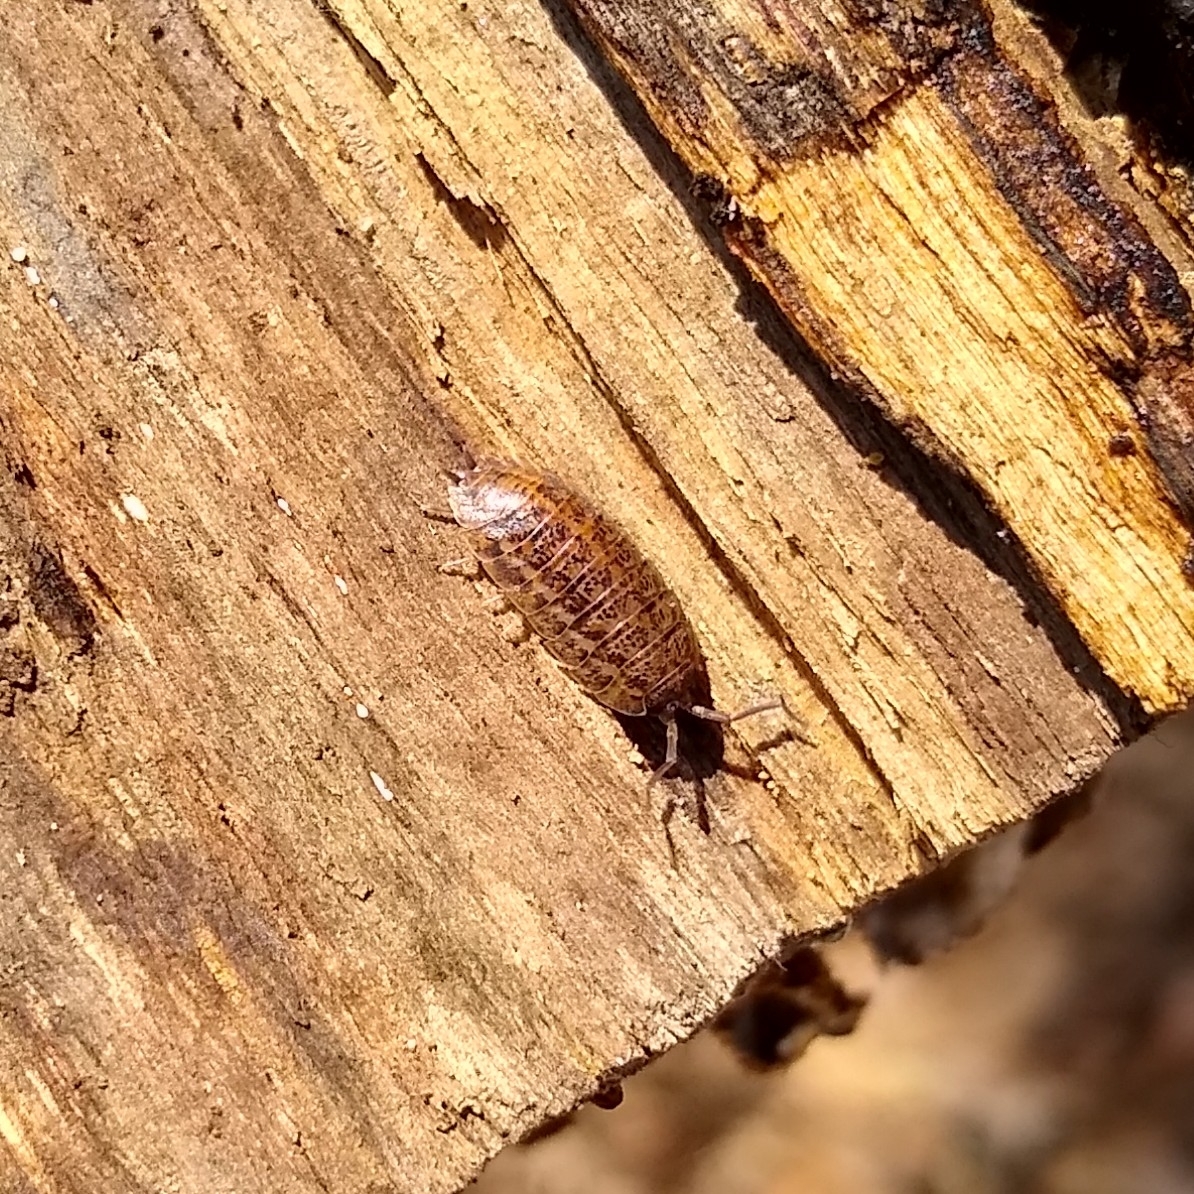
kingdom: Animalia
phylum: Arthropoda
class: Malacostraca
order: Isopoda
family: Trachelipodidae
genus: Trachelipus
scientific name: Trachelipus rathkii
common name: Isopod
